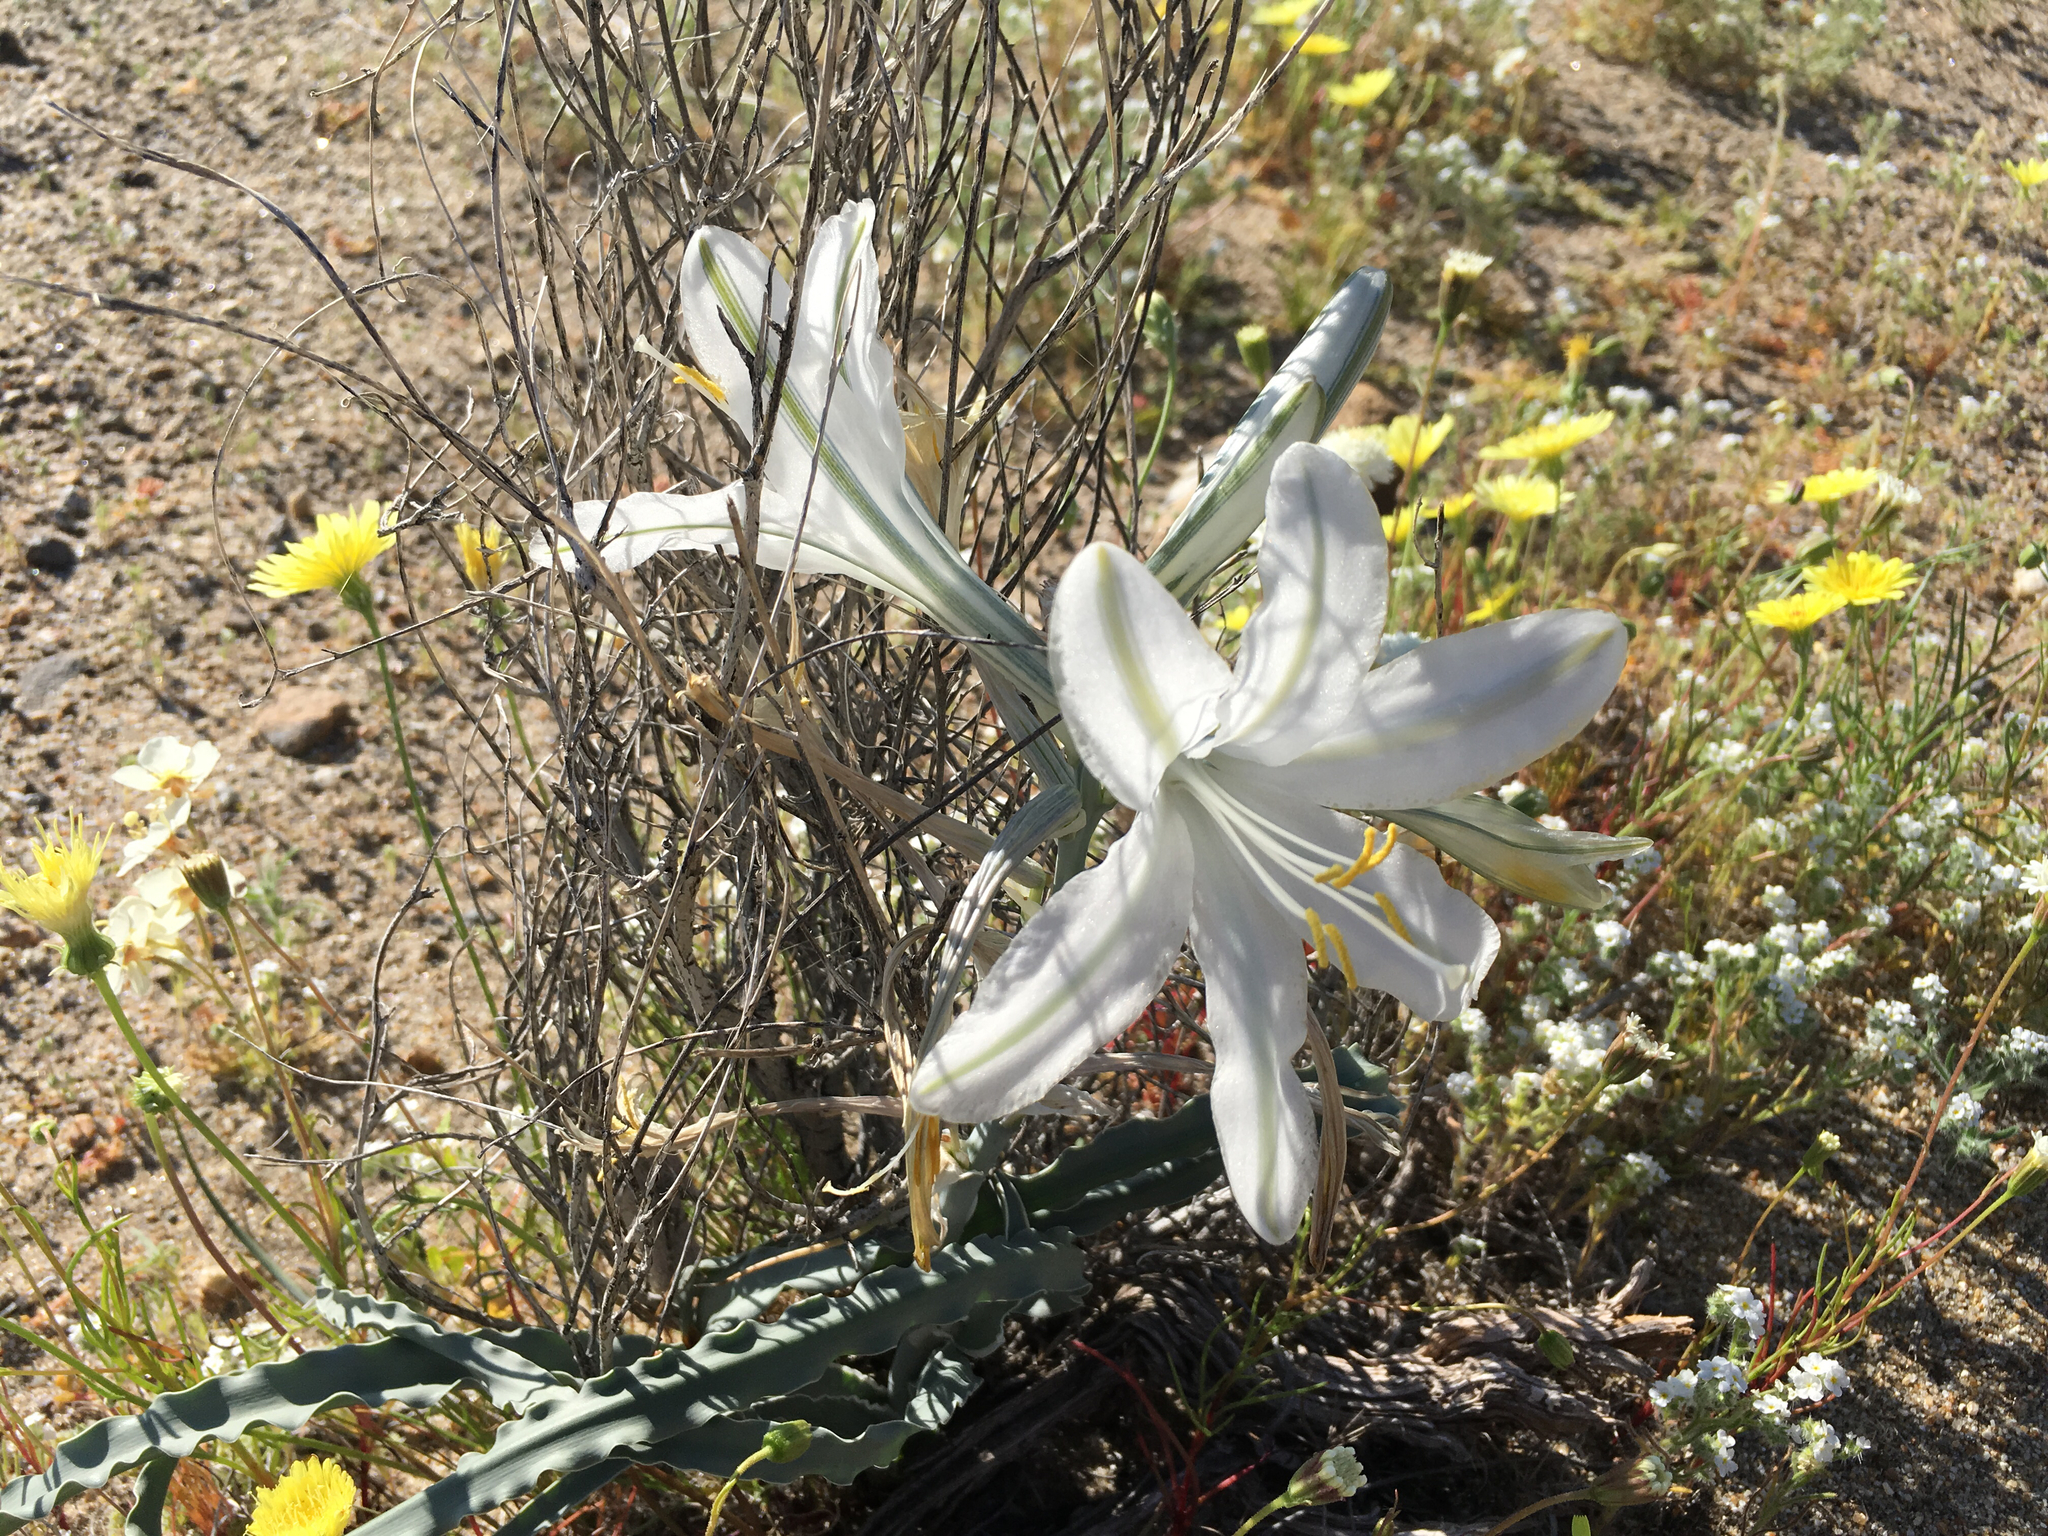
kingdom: Plantae
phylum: Tracheophyta
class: Liliopsida
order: Asparagales
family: Asparagaceae
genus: Hesperocallis
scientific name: Hesperocallis undulata
